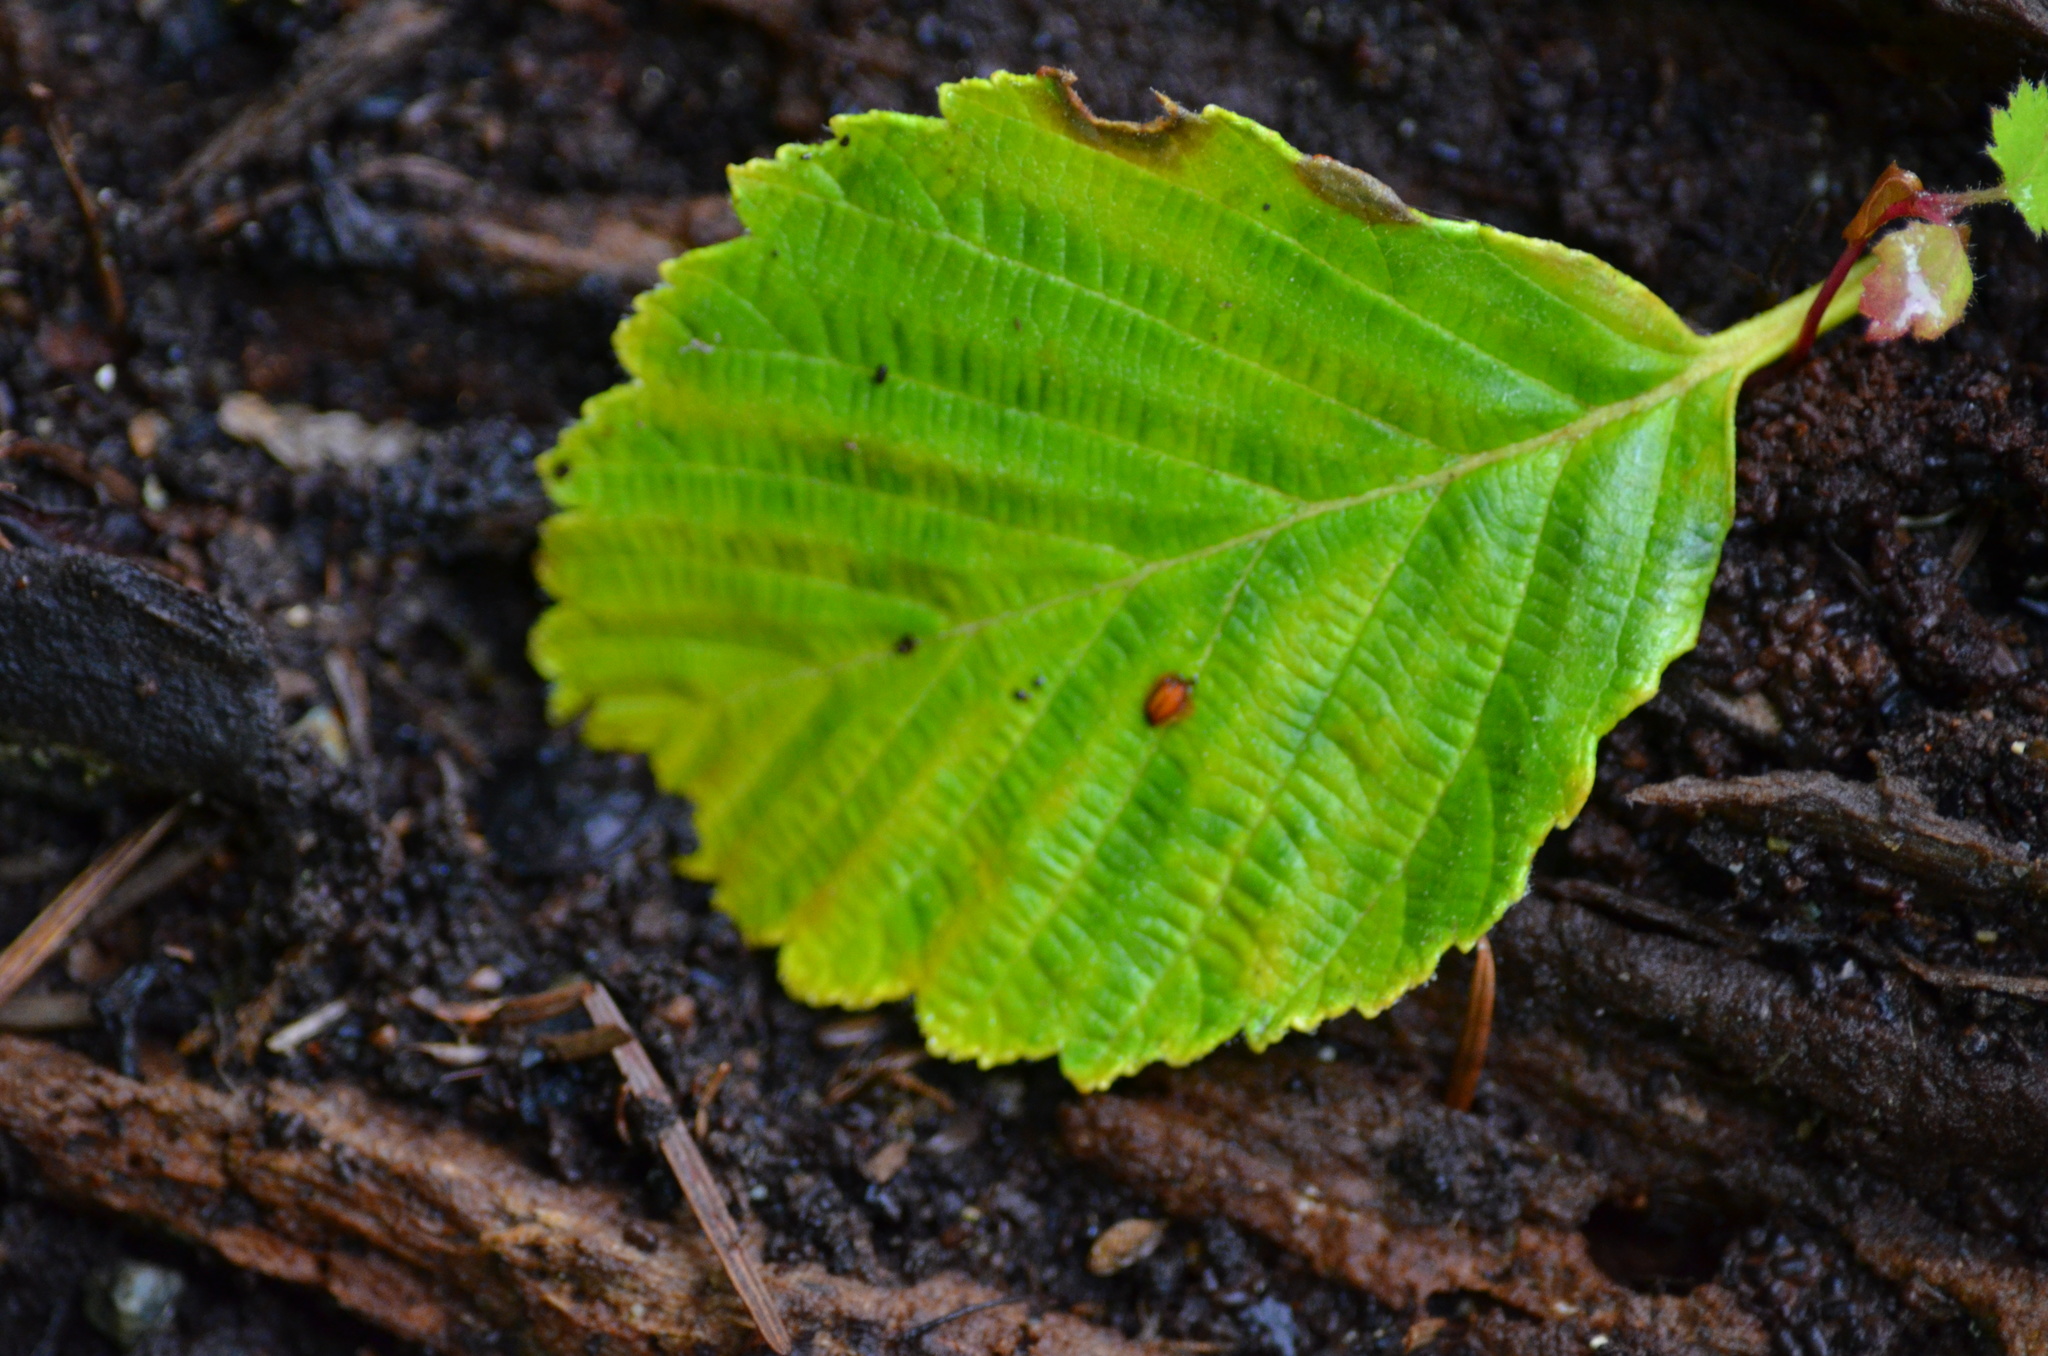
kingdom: Plantae
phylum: Tracheophyta
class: Magnoliopsida
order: Fagales
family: Betulaceae
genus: Alnus
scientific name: Alnus rubra
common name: Red alder
